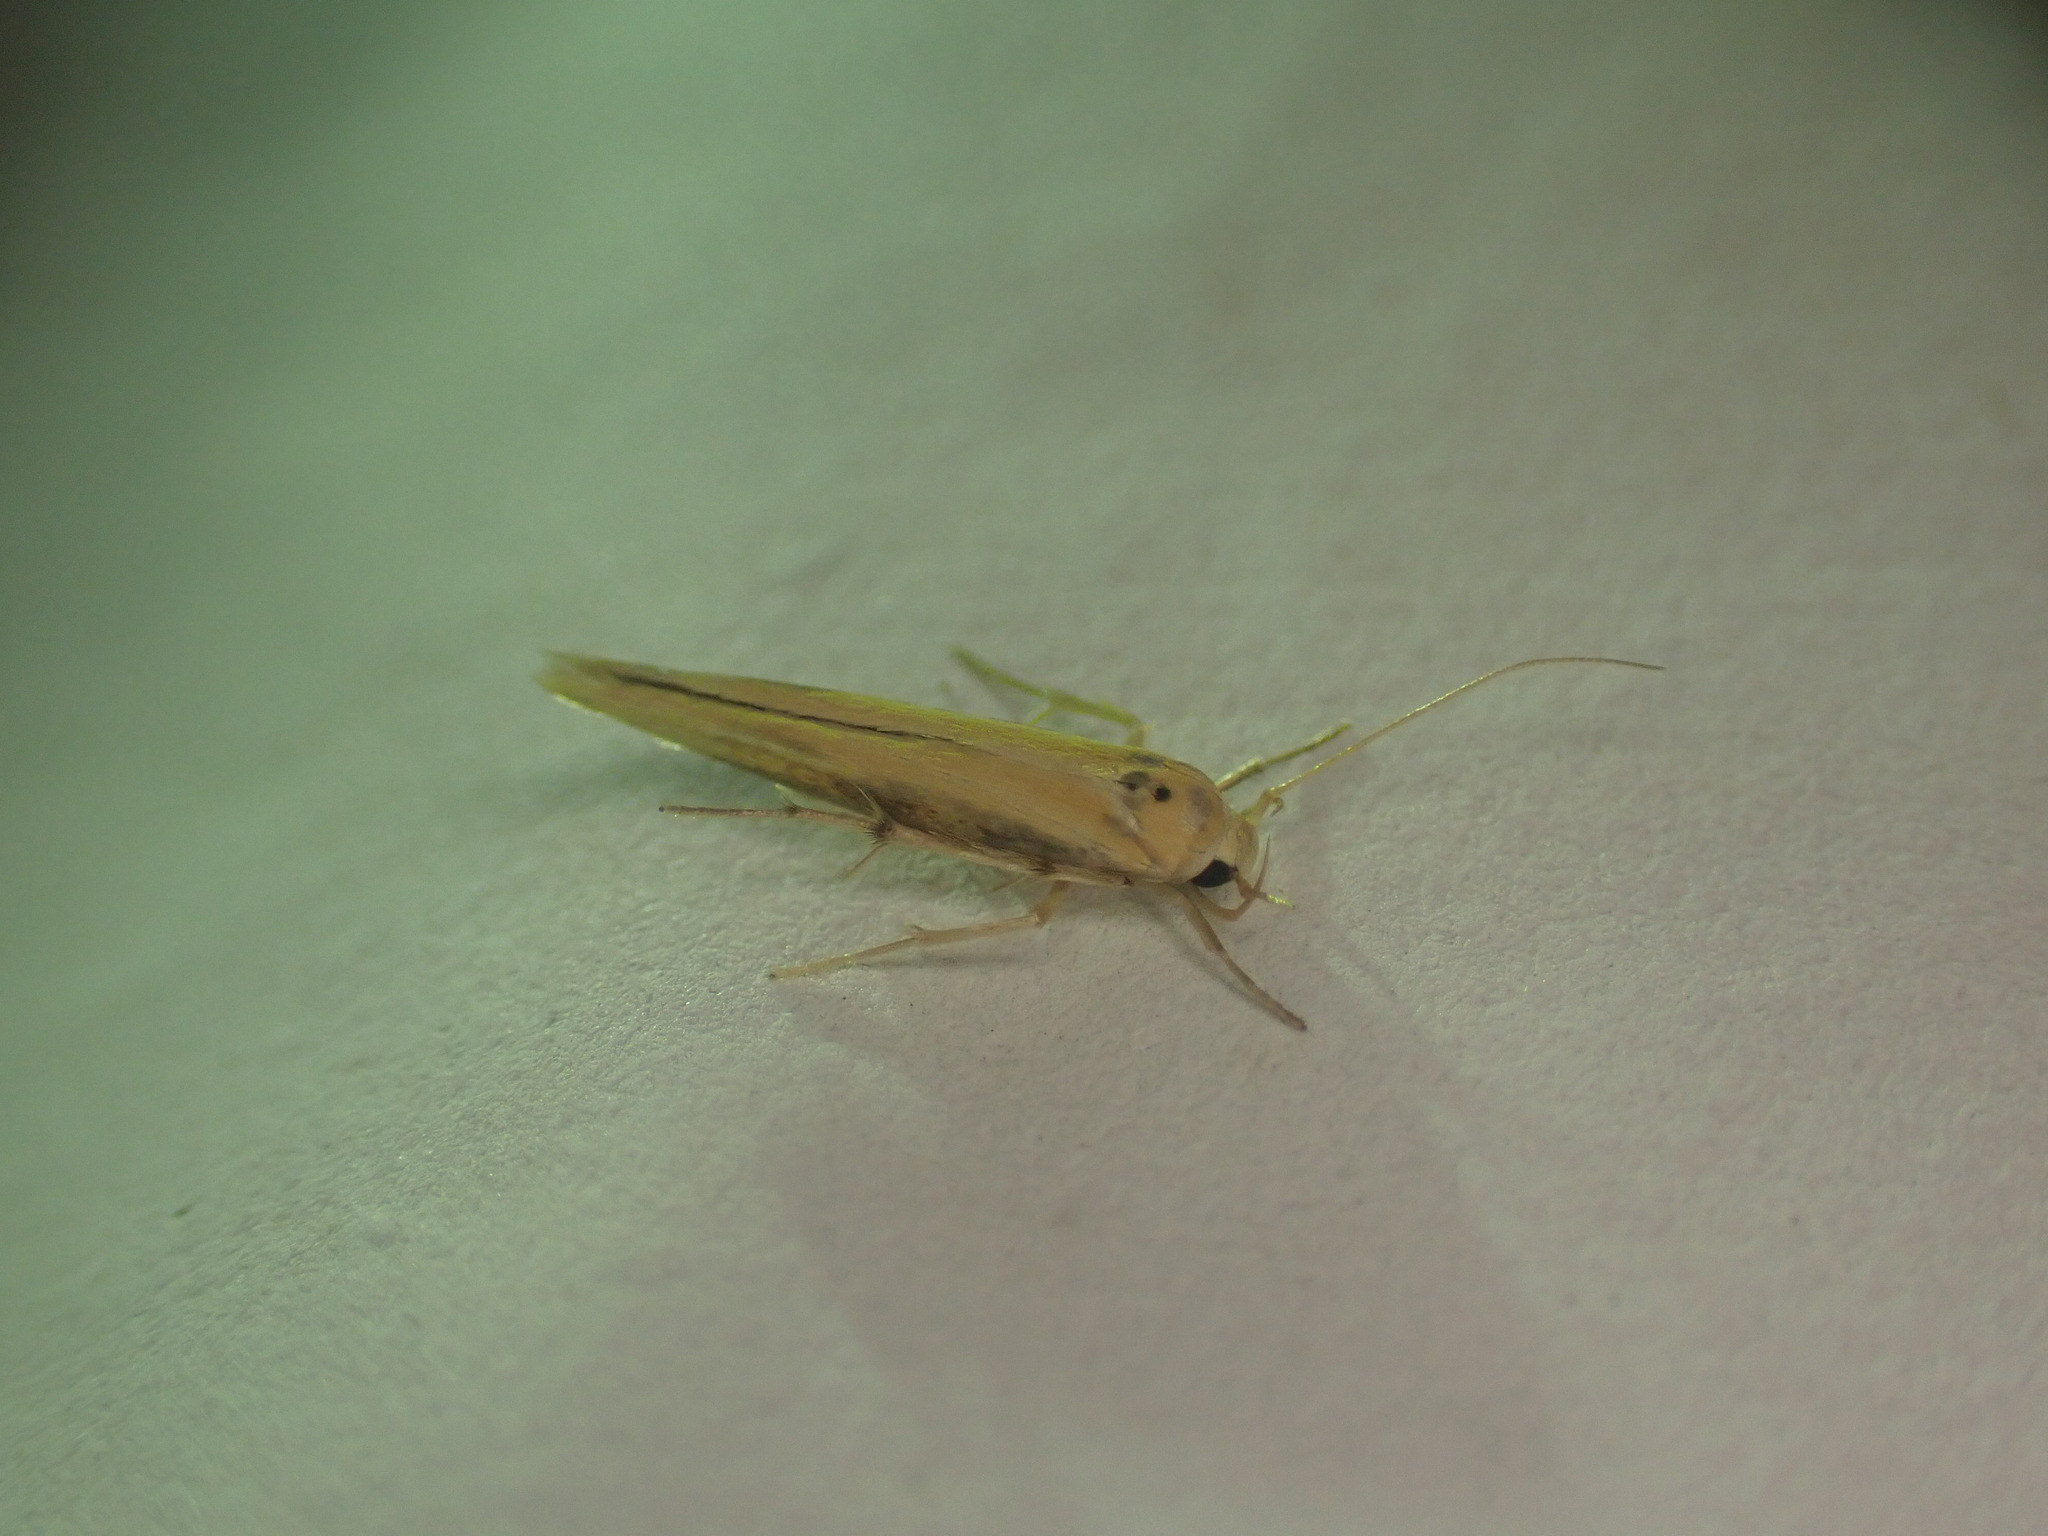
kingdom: Animalia
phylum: Arthropoda
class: Insecta
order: Lepidoptera
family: Stathmopodidae
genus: Stathmopoda
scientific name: Stathmopoda skelloni
